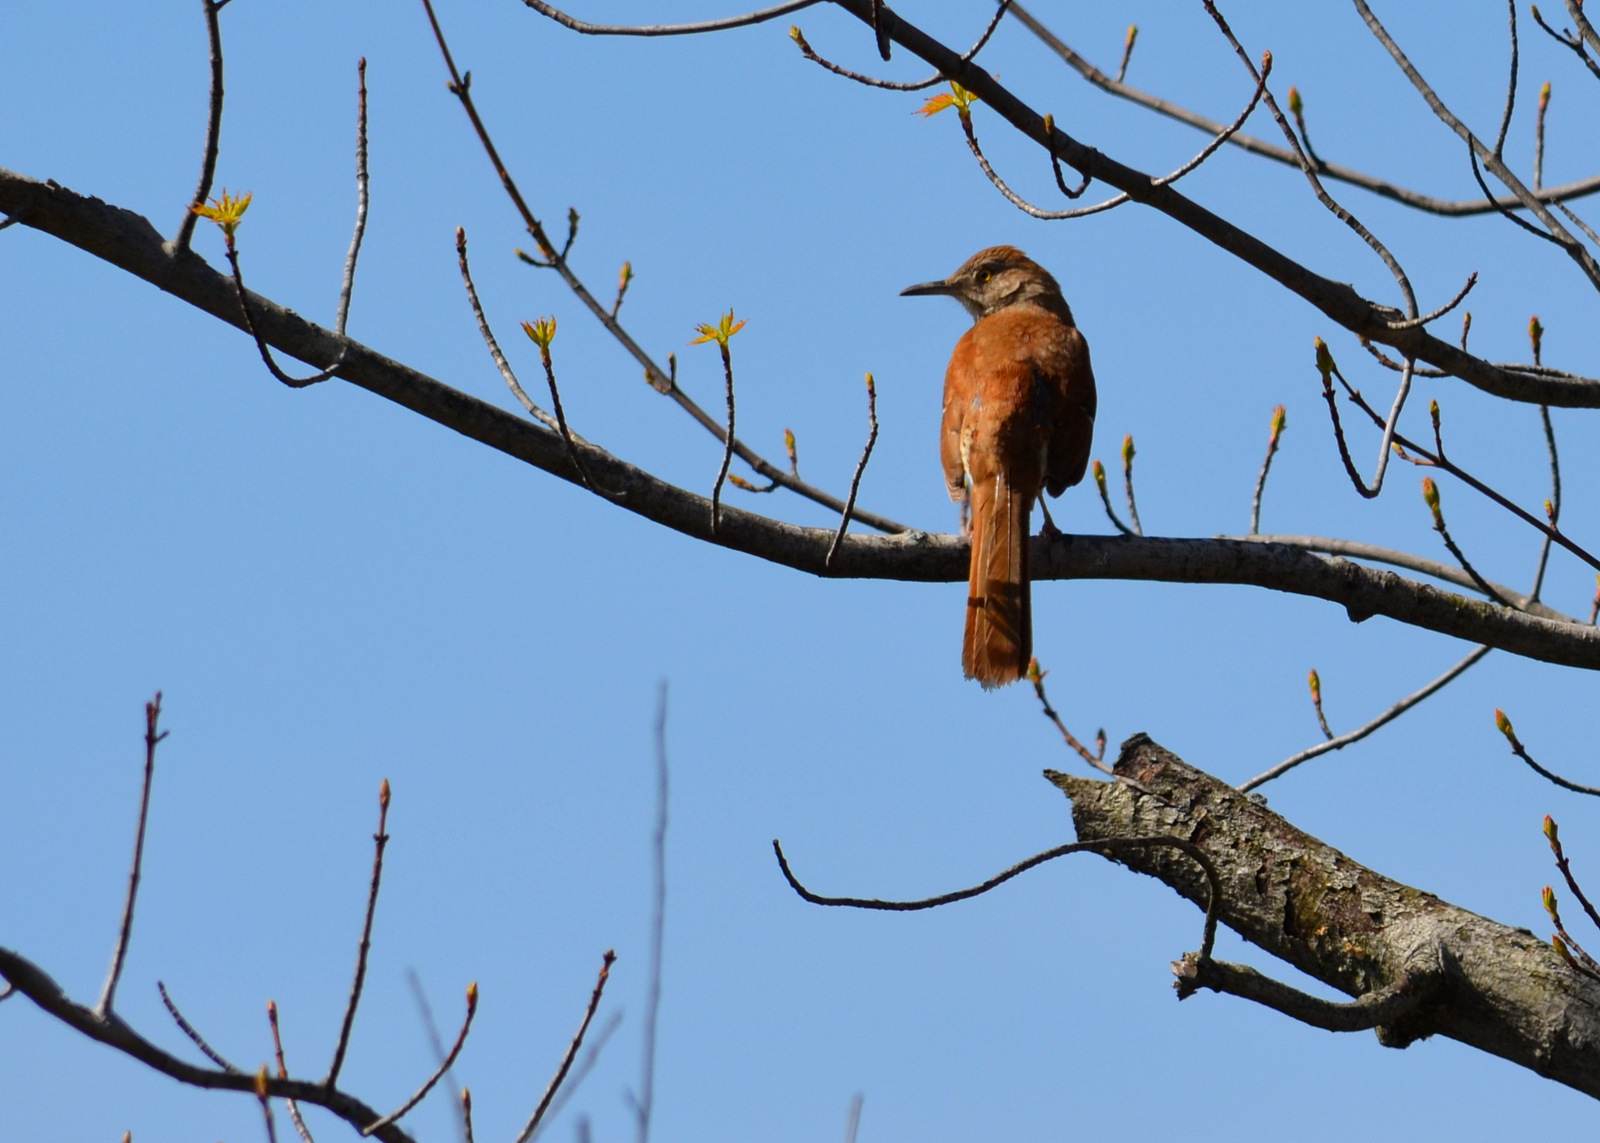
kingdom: Animalia
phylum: Chordata
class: Aves
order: Passeriformes
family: Mimidae
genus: Toxostoma
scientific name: Toxostoma rufum
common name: Brown thrasher
